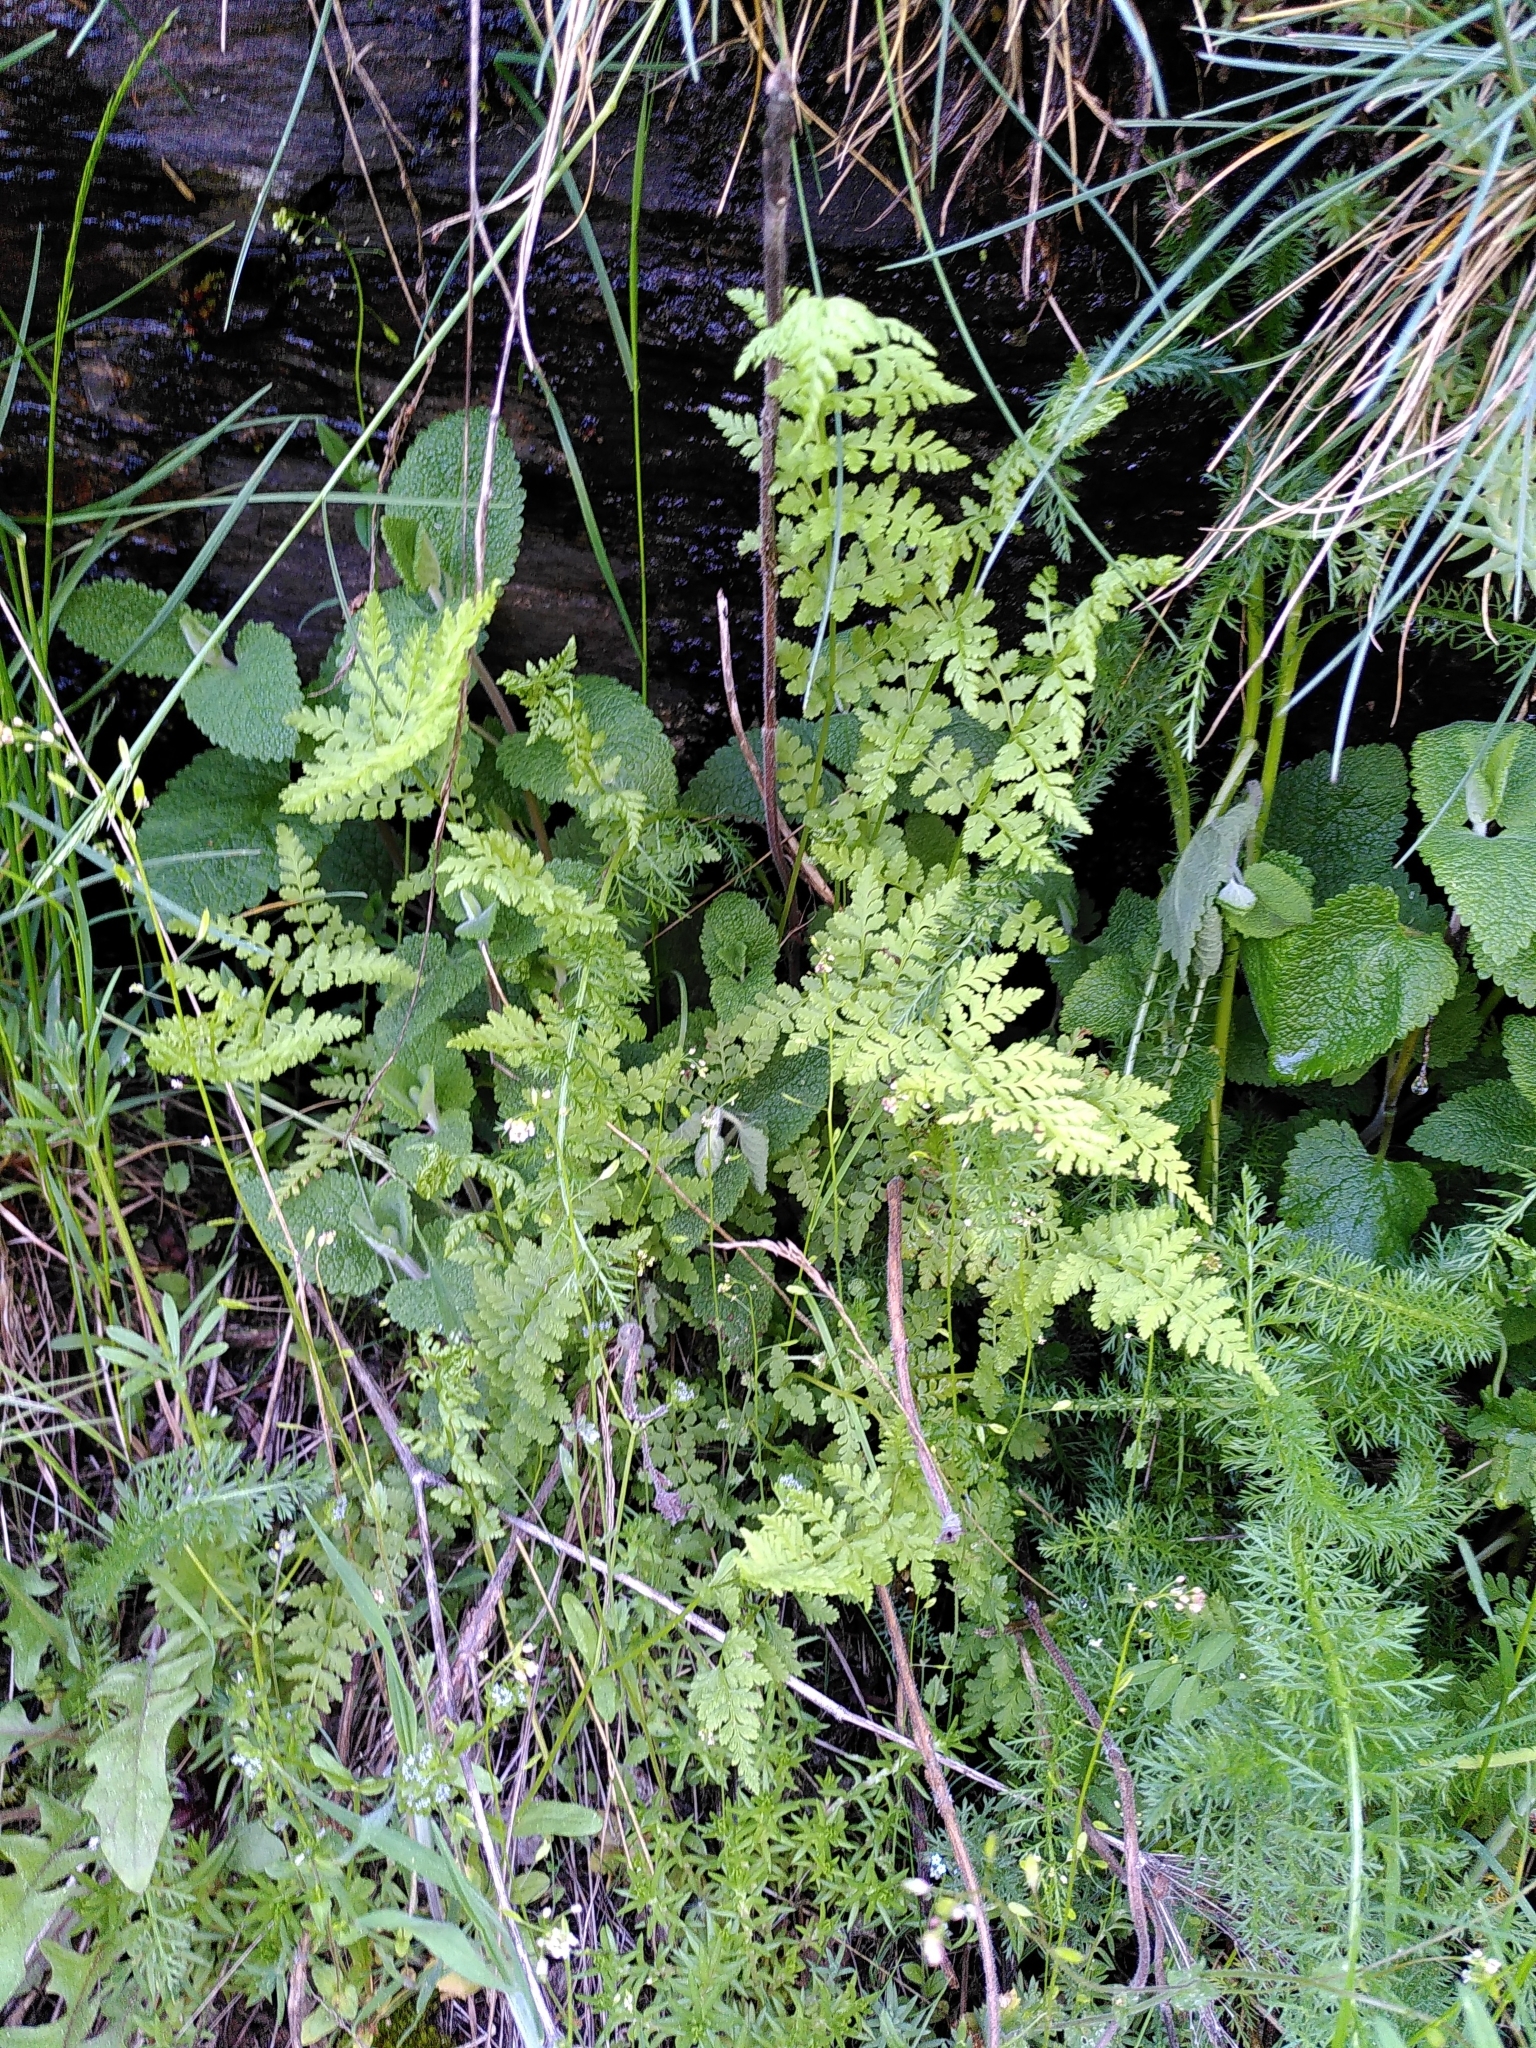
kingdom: Plantae
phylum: Tracheophyta
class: Polypodiopsida
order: Polypodiales
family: Cystopteridaceae
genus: Cystopteris
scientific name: Cystopteris fragilis
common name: Brittle bladder fern
